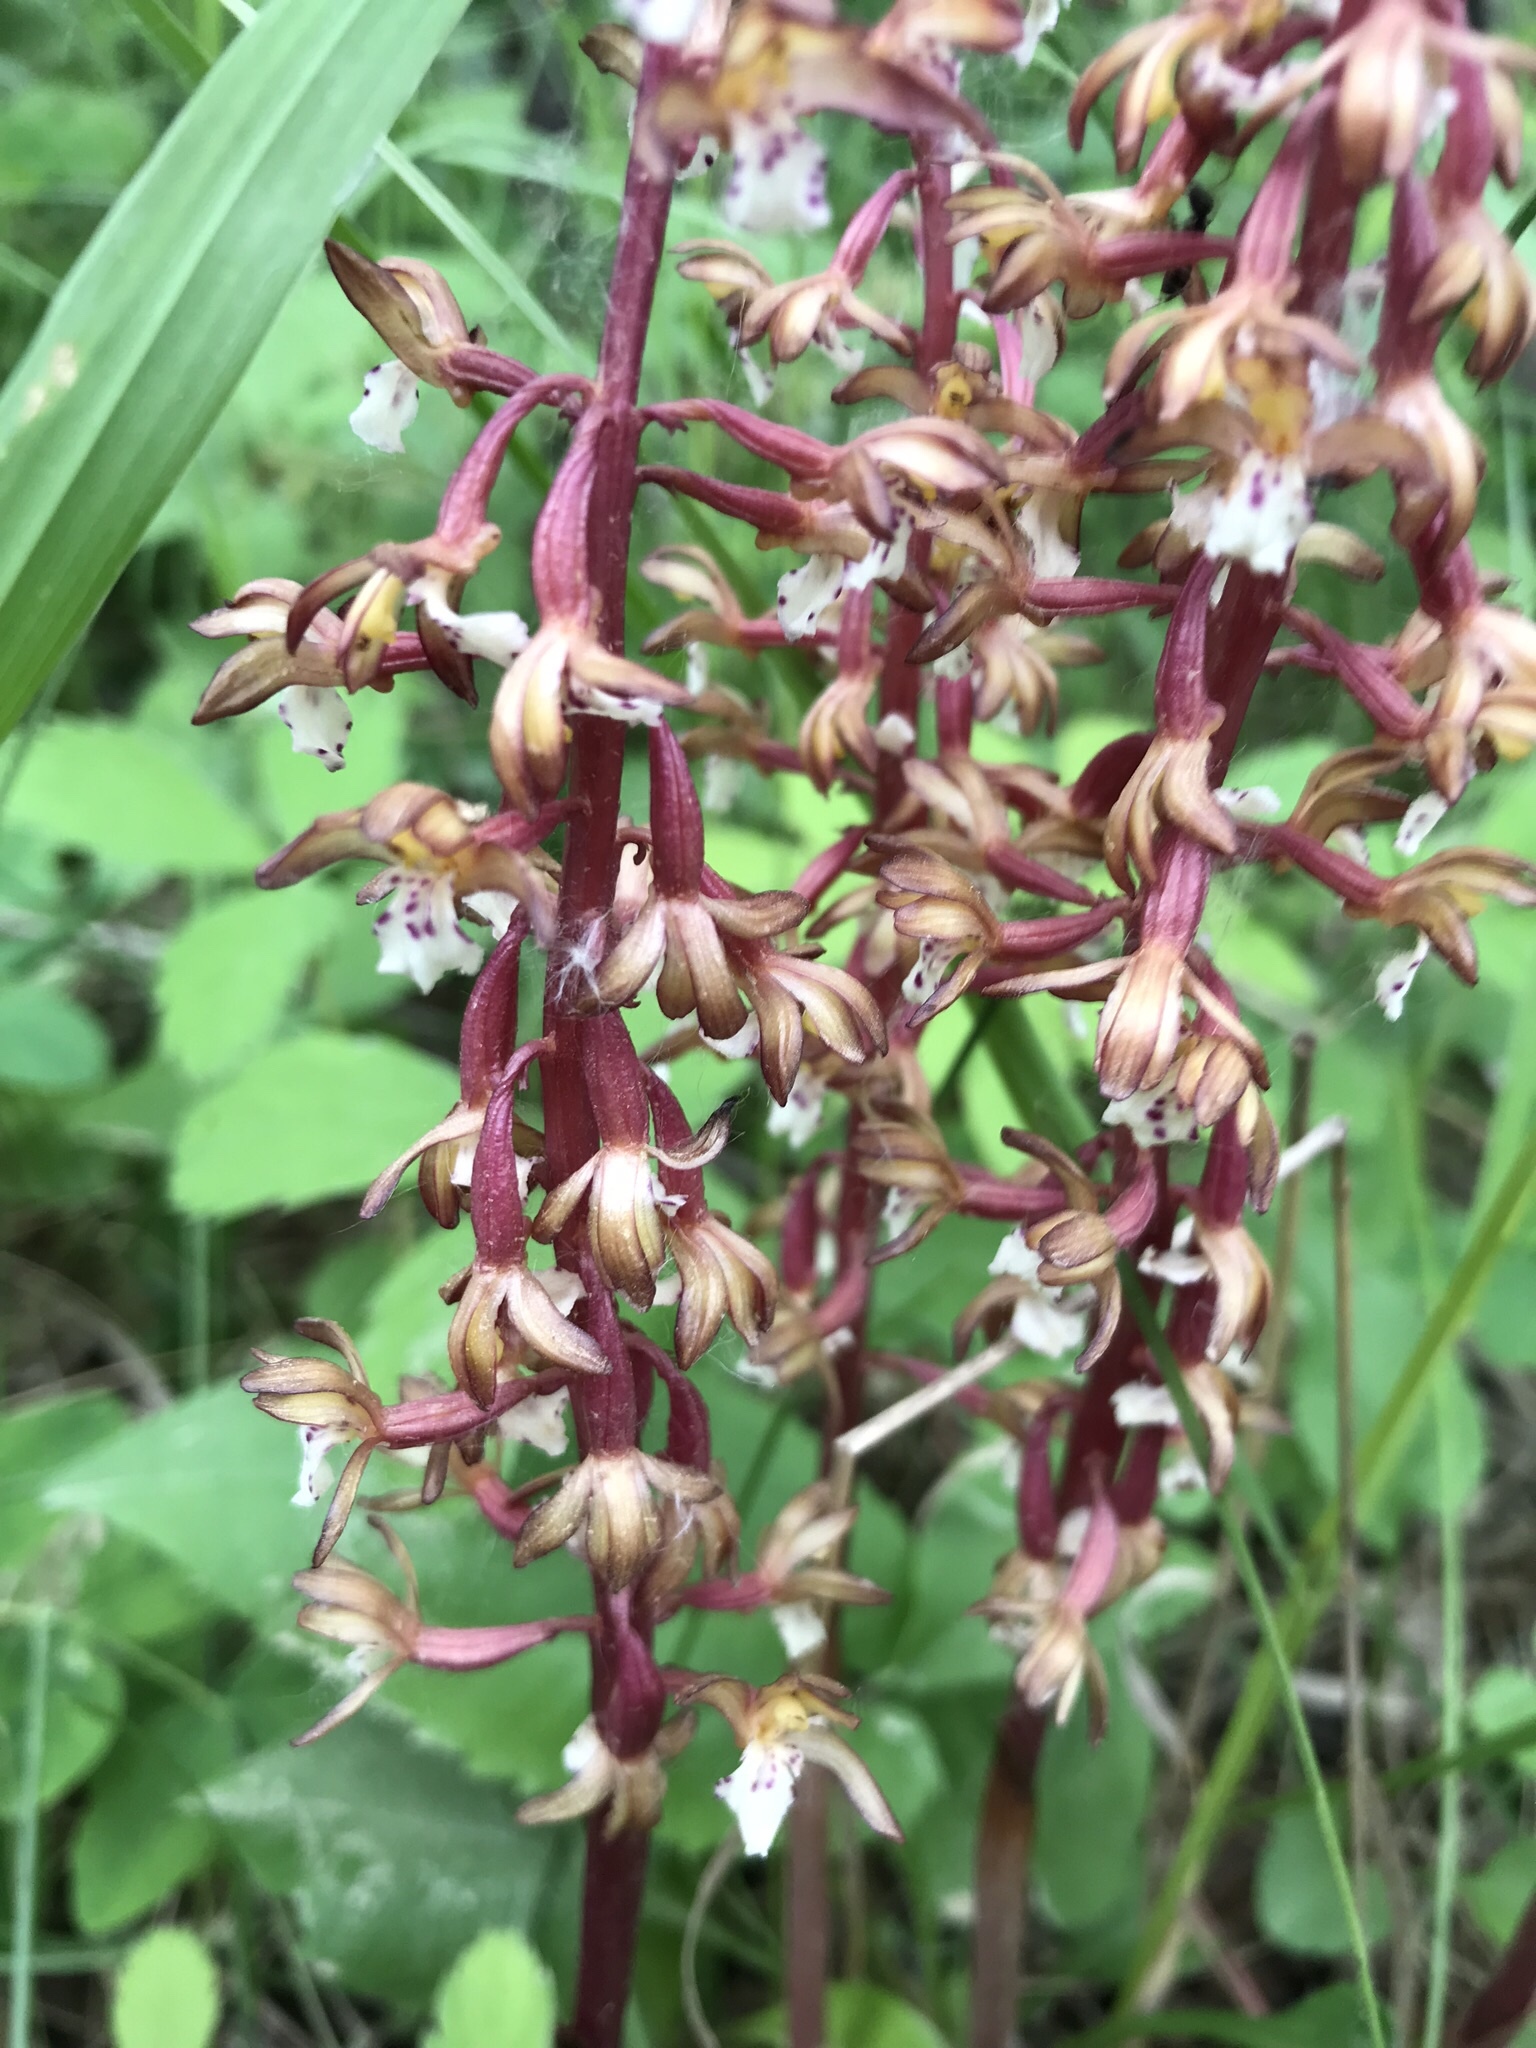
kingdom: Plantae
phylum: Tracheophyta
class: Liliopsida
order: Asparagales
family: Orchidaceae
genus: Corallorhiza
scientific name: Corallorhiza maculata
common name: Spotted coralroot
